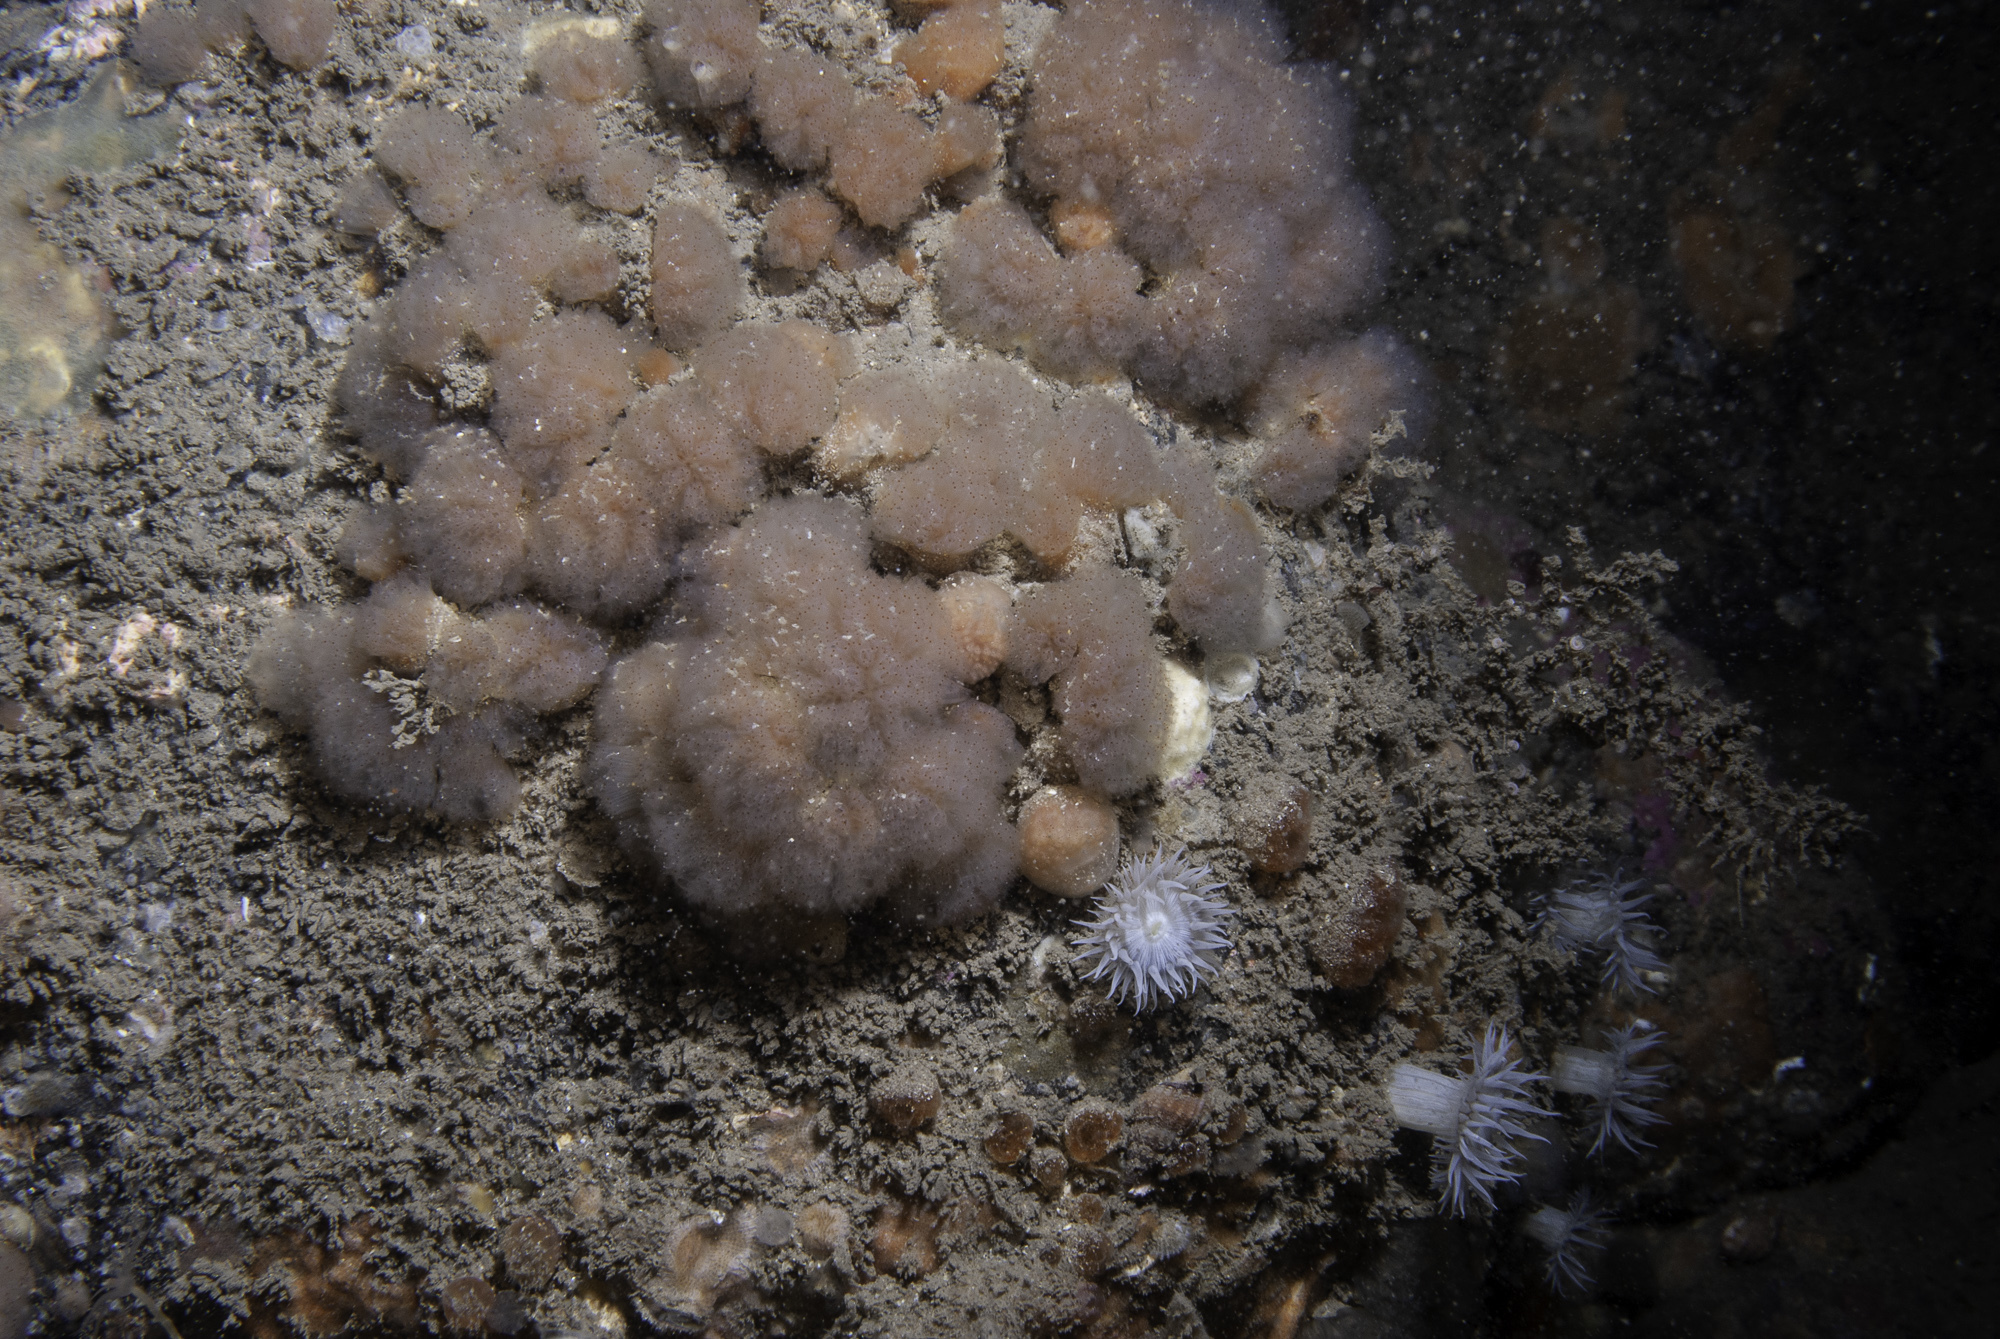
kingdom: Animalia
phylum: Chordata
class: Ascidiacea
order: Aplousobranchia
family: Polyclinidae
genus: Morchellium
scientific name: Morchellium argus
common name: Colonial sesquirt
